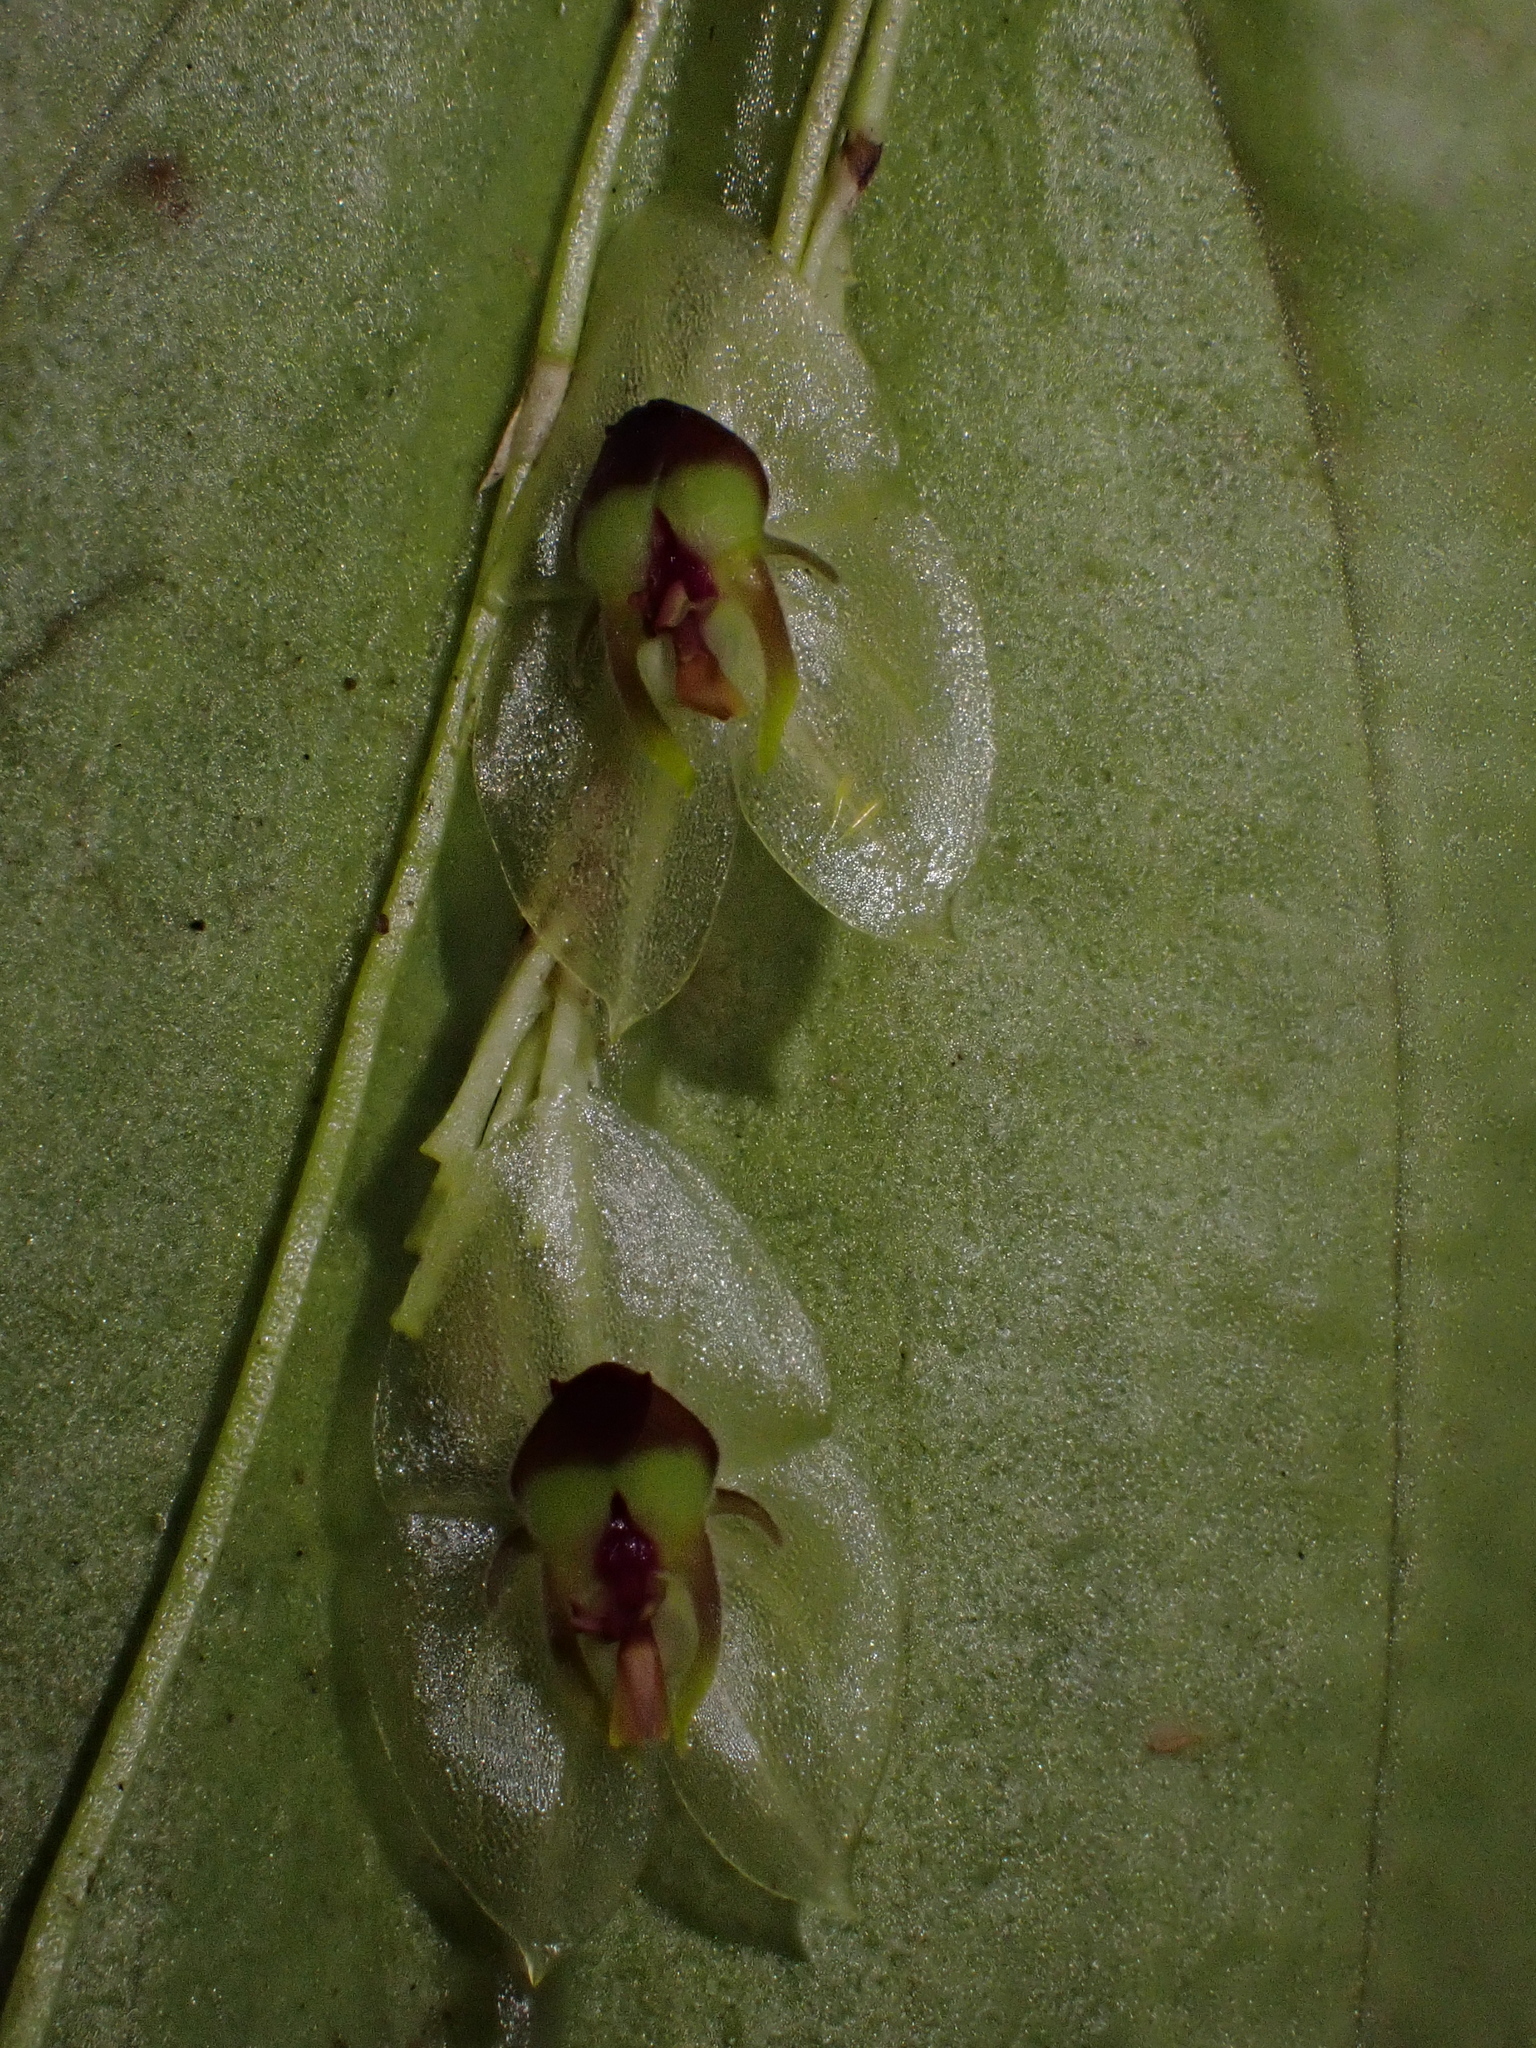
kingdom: Plantae
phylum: Tracheophyta
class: Liliopsida
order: Asparagales
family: Orchidaceae
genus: Lepanthes
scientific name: Lepanthes ollaris
